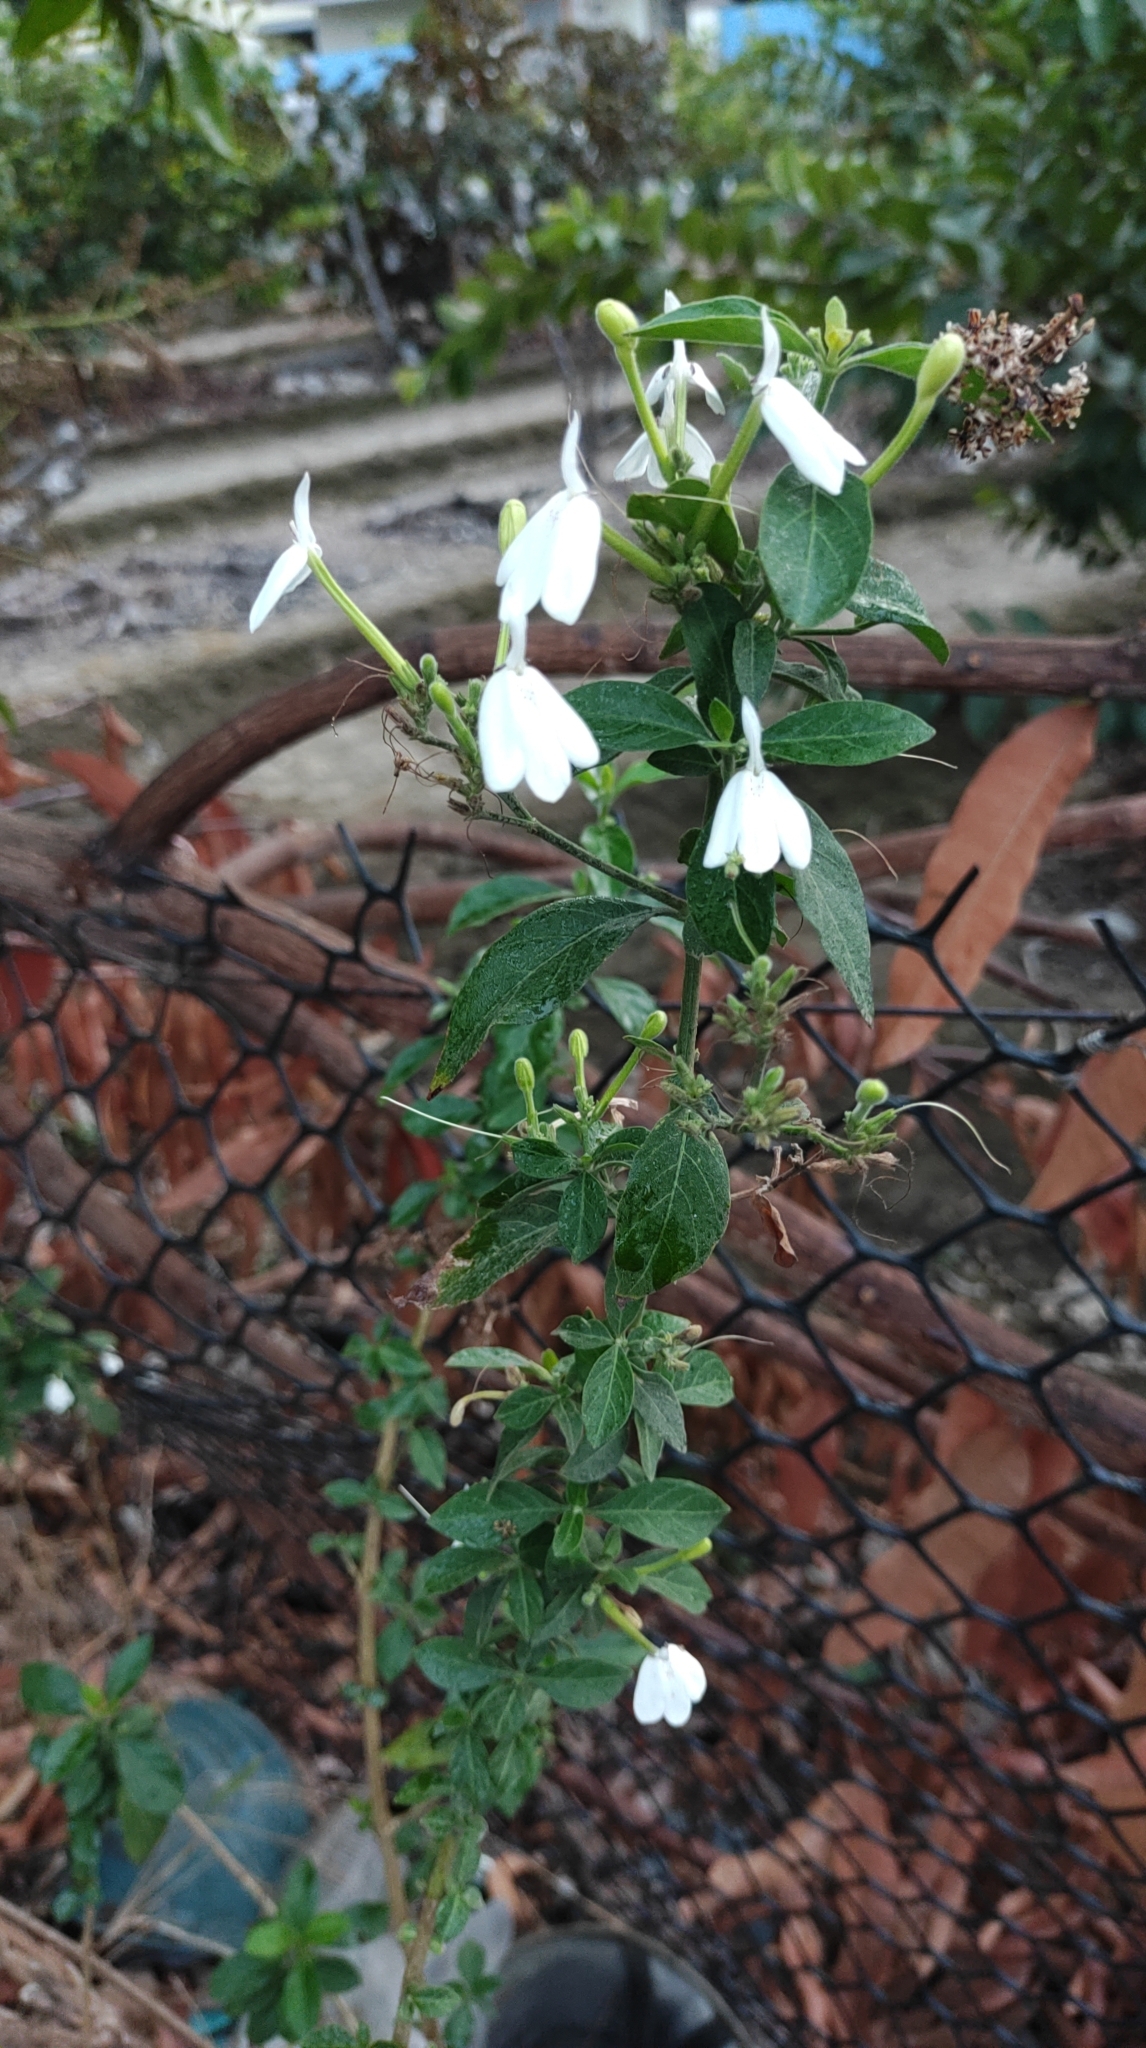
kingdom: Plantae
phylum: Tracheophyta
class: Magnoliopsida
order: Lamiales
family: Acanthaceae
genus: Rhinacanthus
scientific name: Rhinacanthus nasutus
